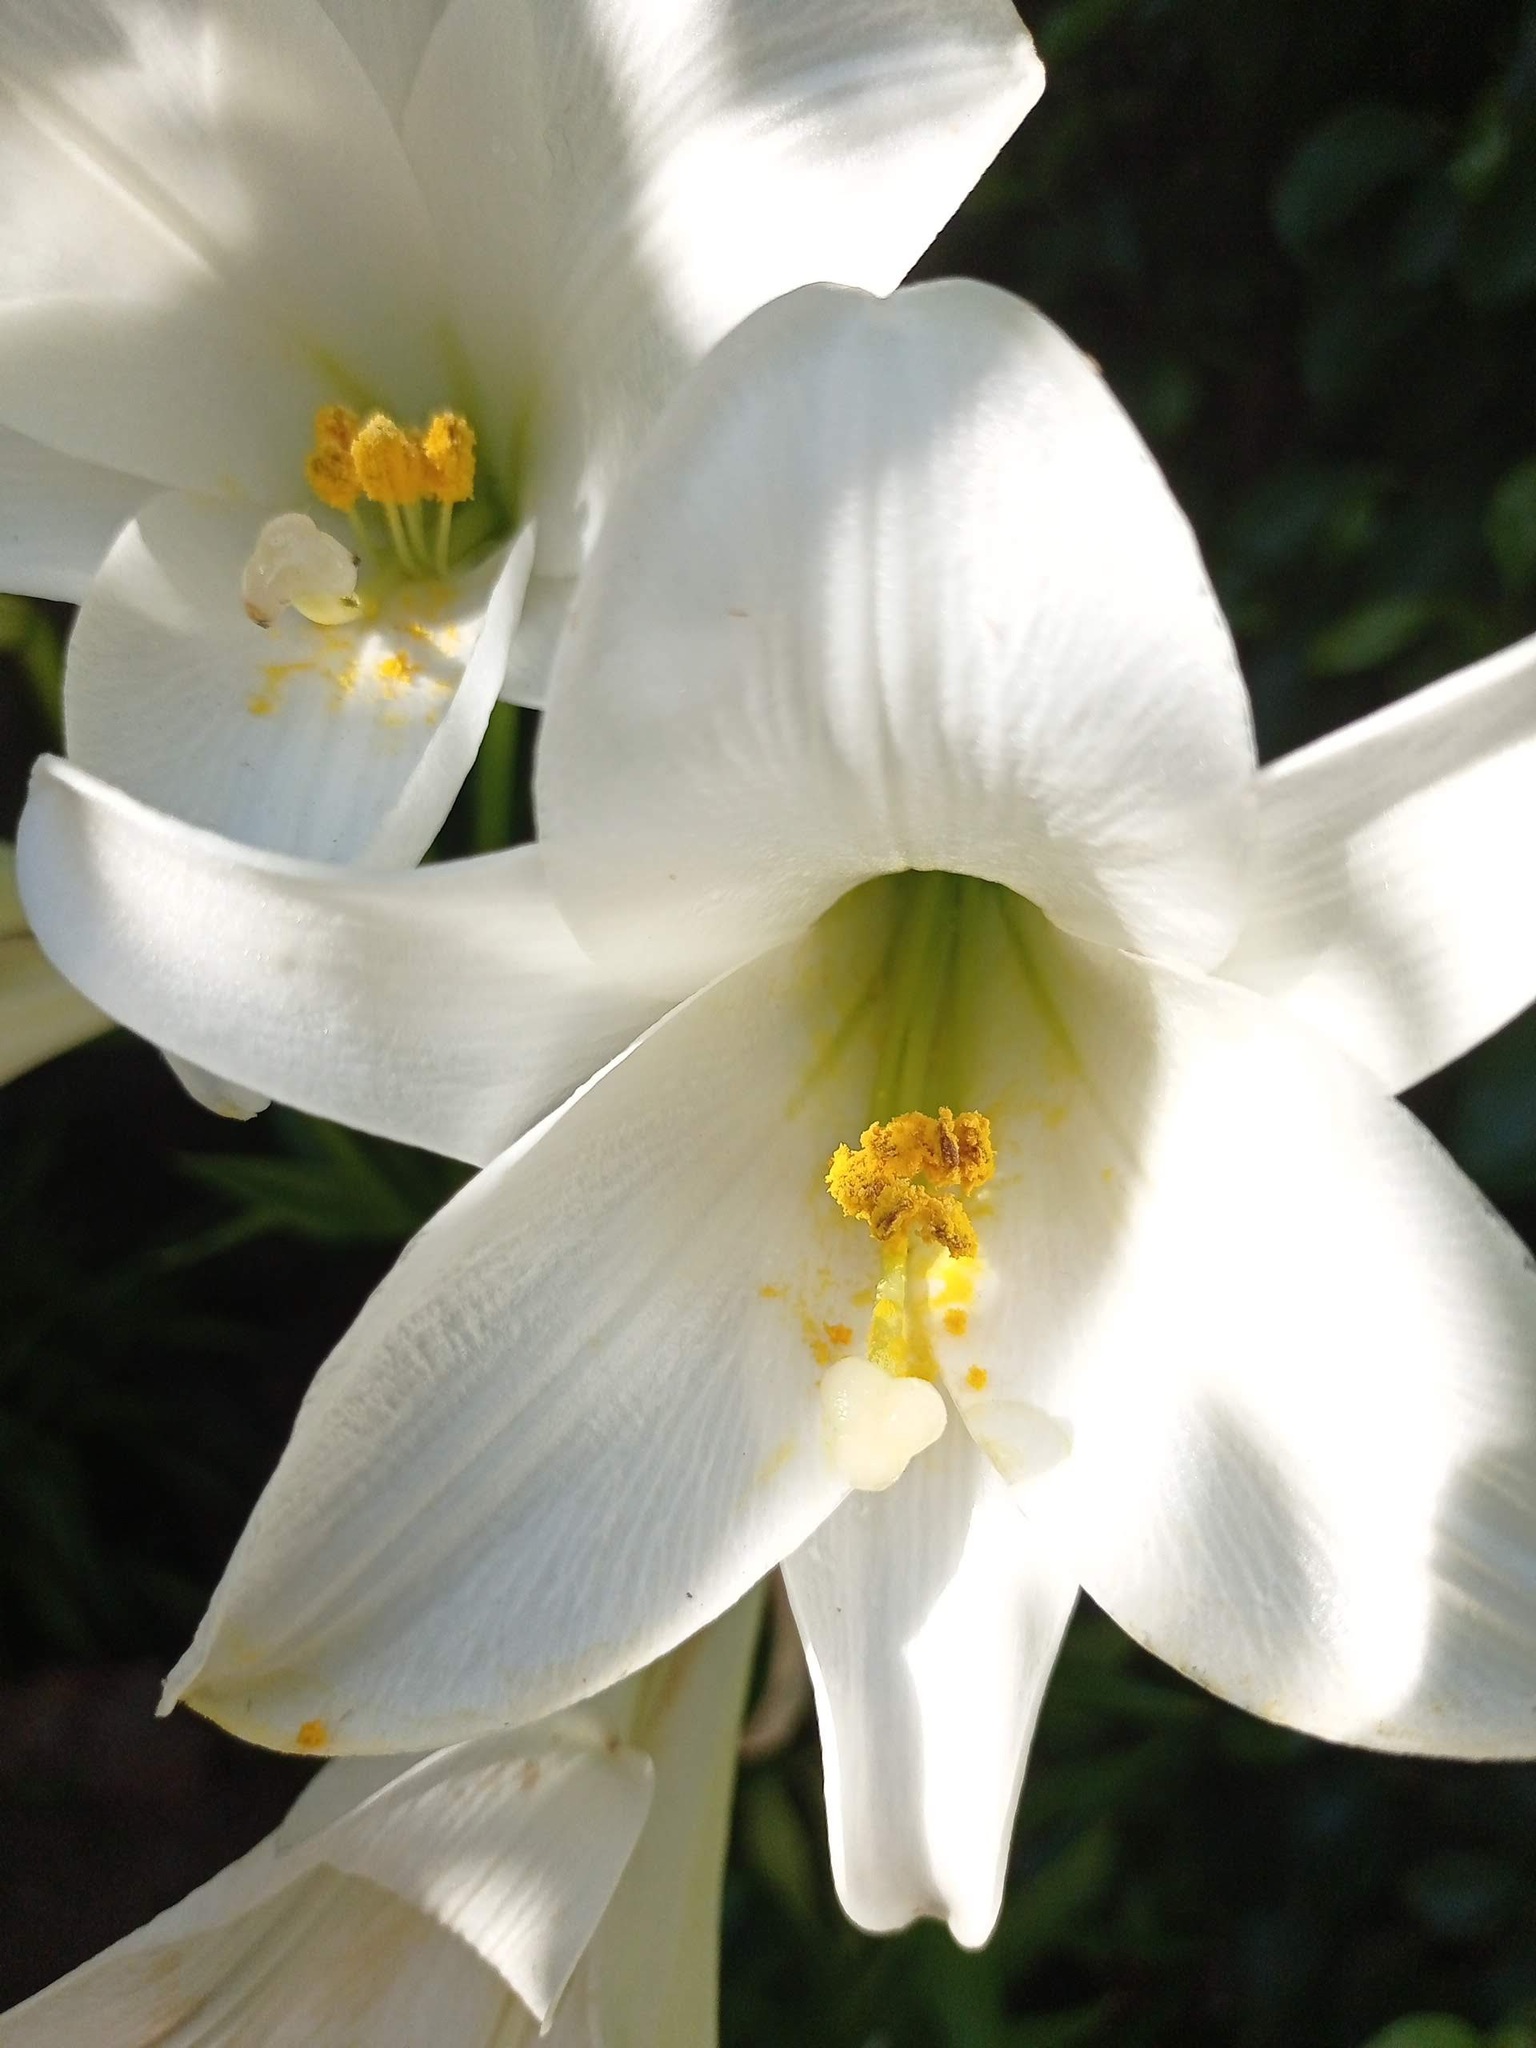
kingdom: Plantae
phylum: Tracheophyta
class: Liliopsida
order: Liliales
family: Liliaceae
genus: Lilium
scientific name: Lilium candidum
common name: Madonna lily
